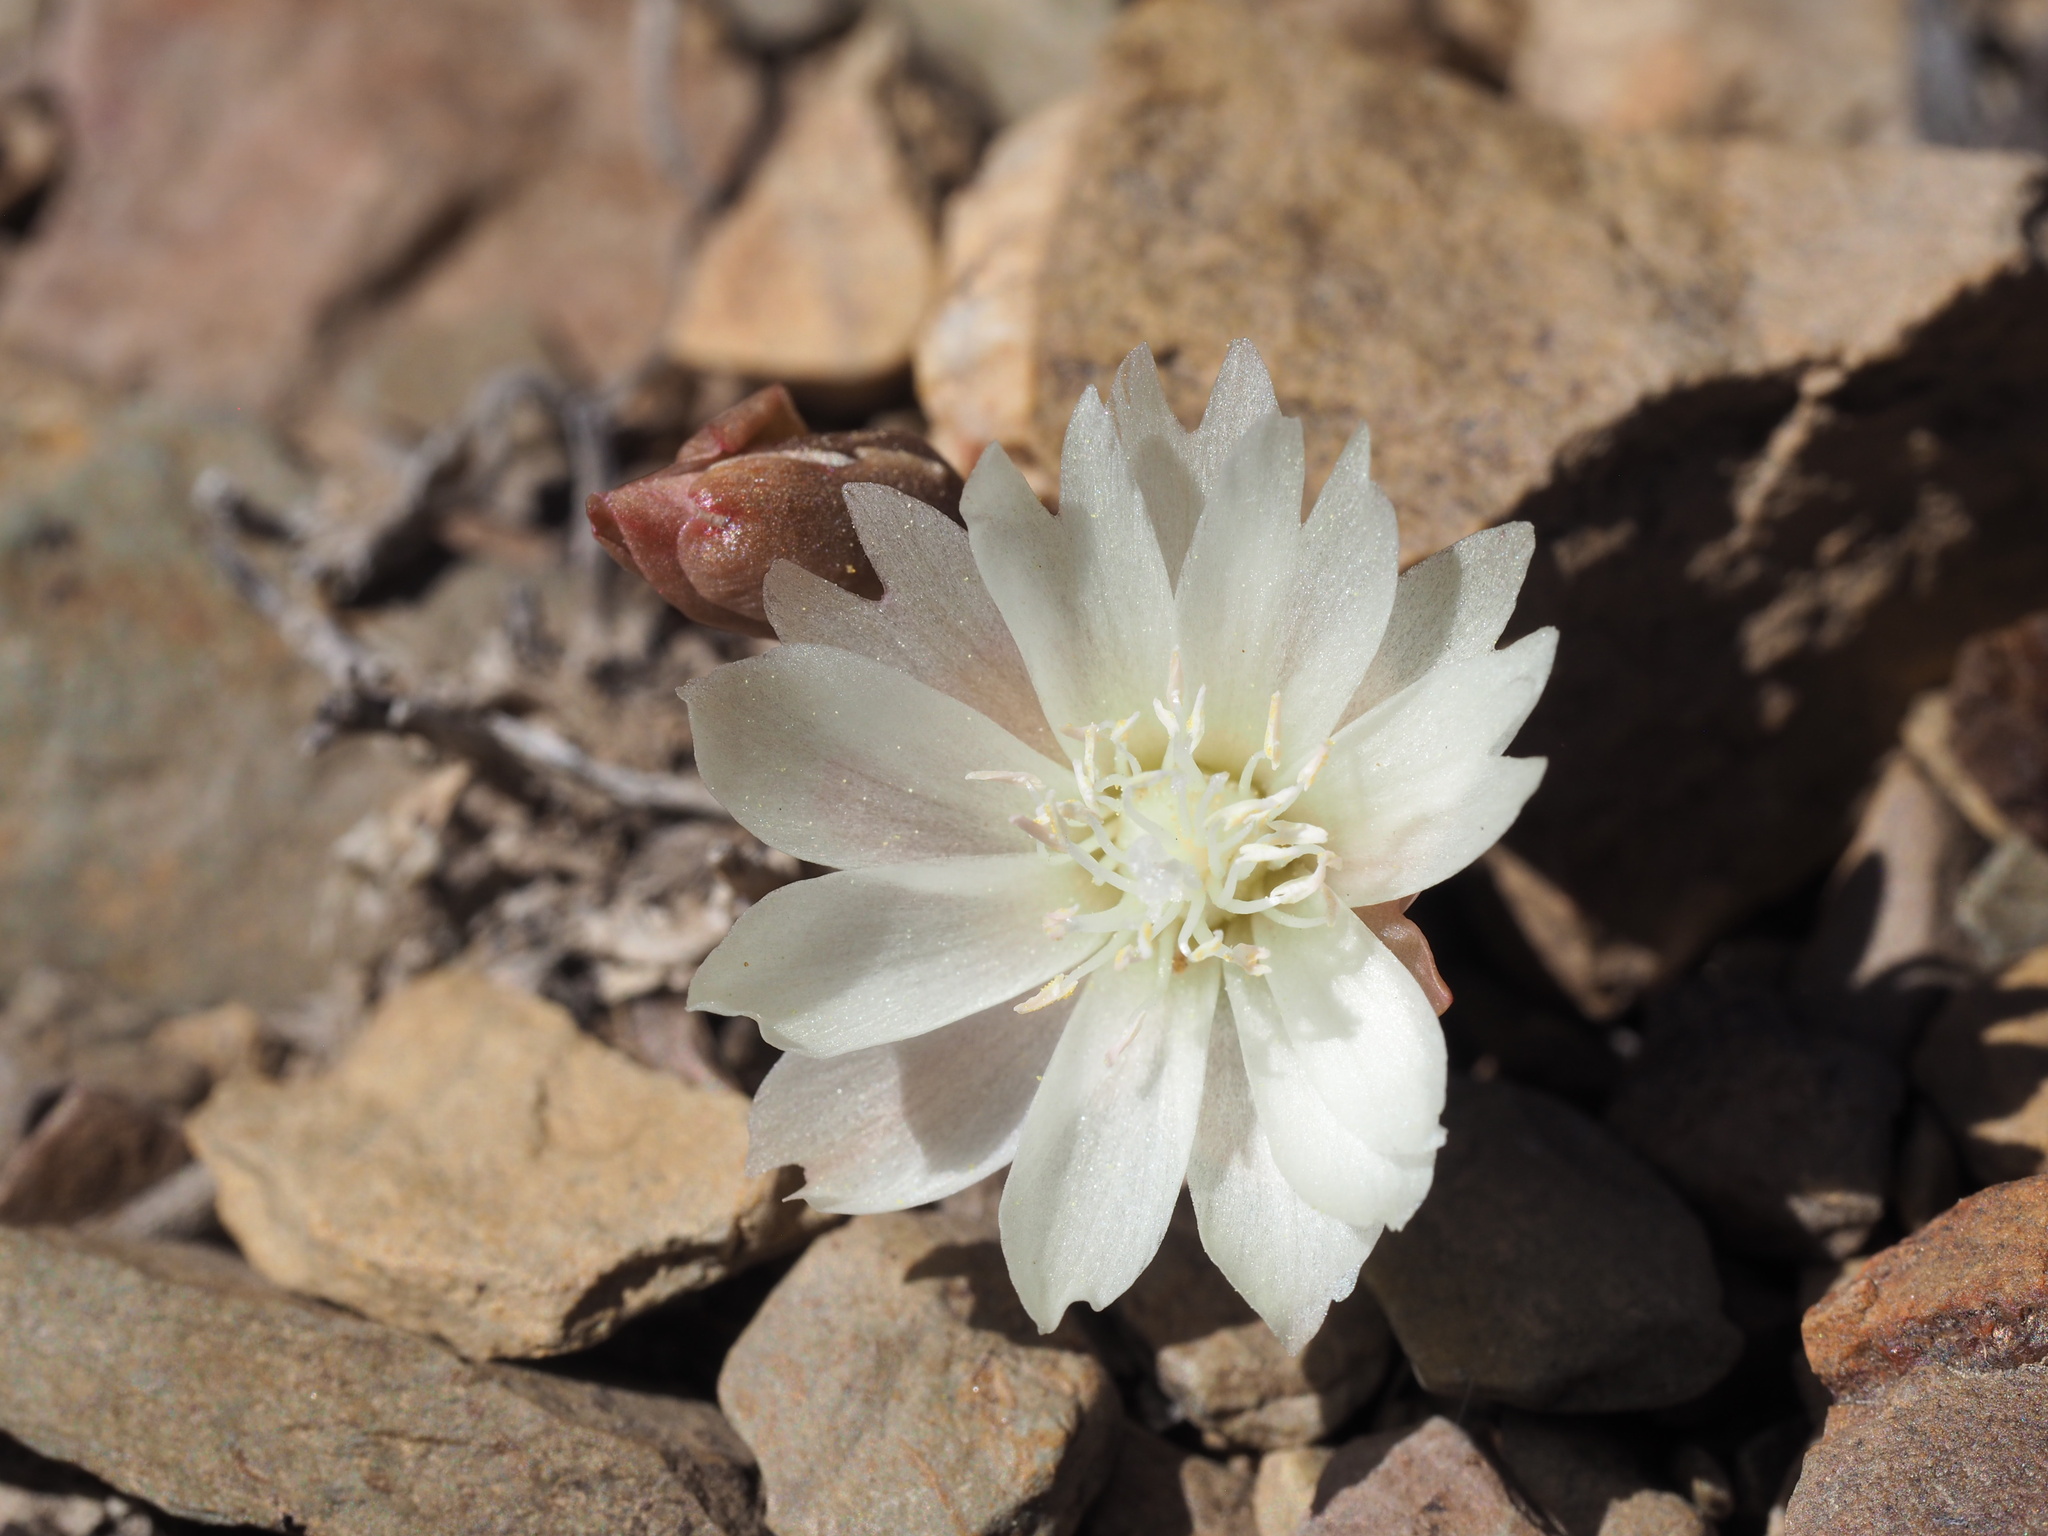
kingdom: Plantae
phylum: Tracheophyta
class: Magnoliopsida
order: Caryophyllales
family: Montiaceae
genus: Lewisia
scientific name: Lewisia rediviva
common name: Bitter-root
